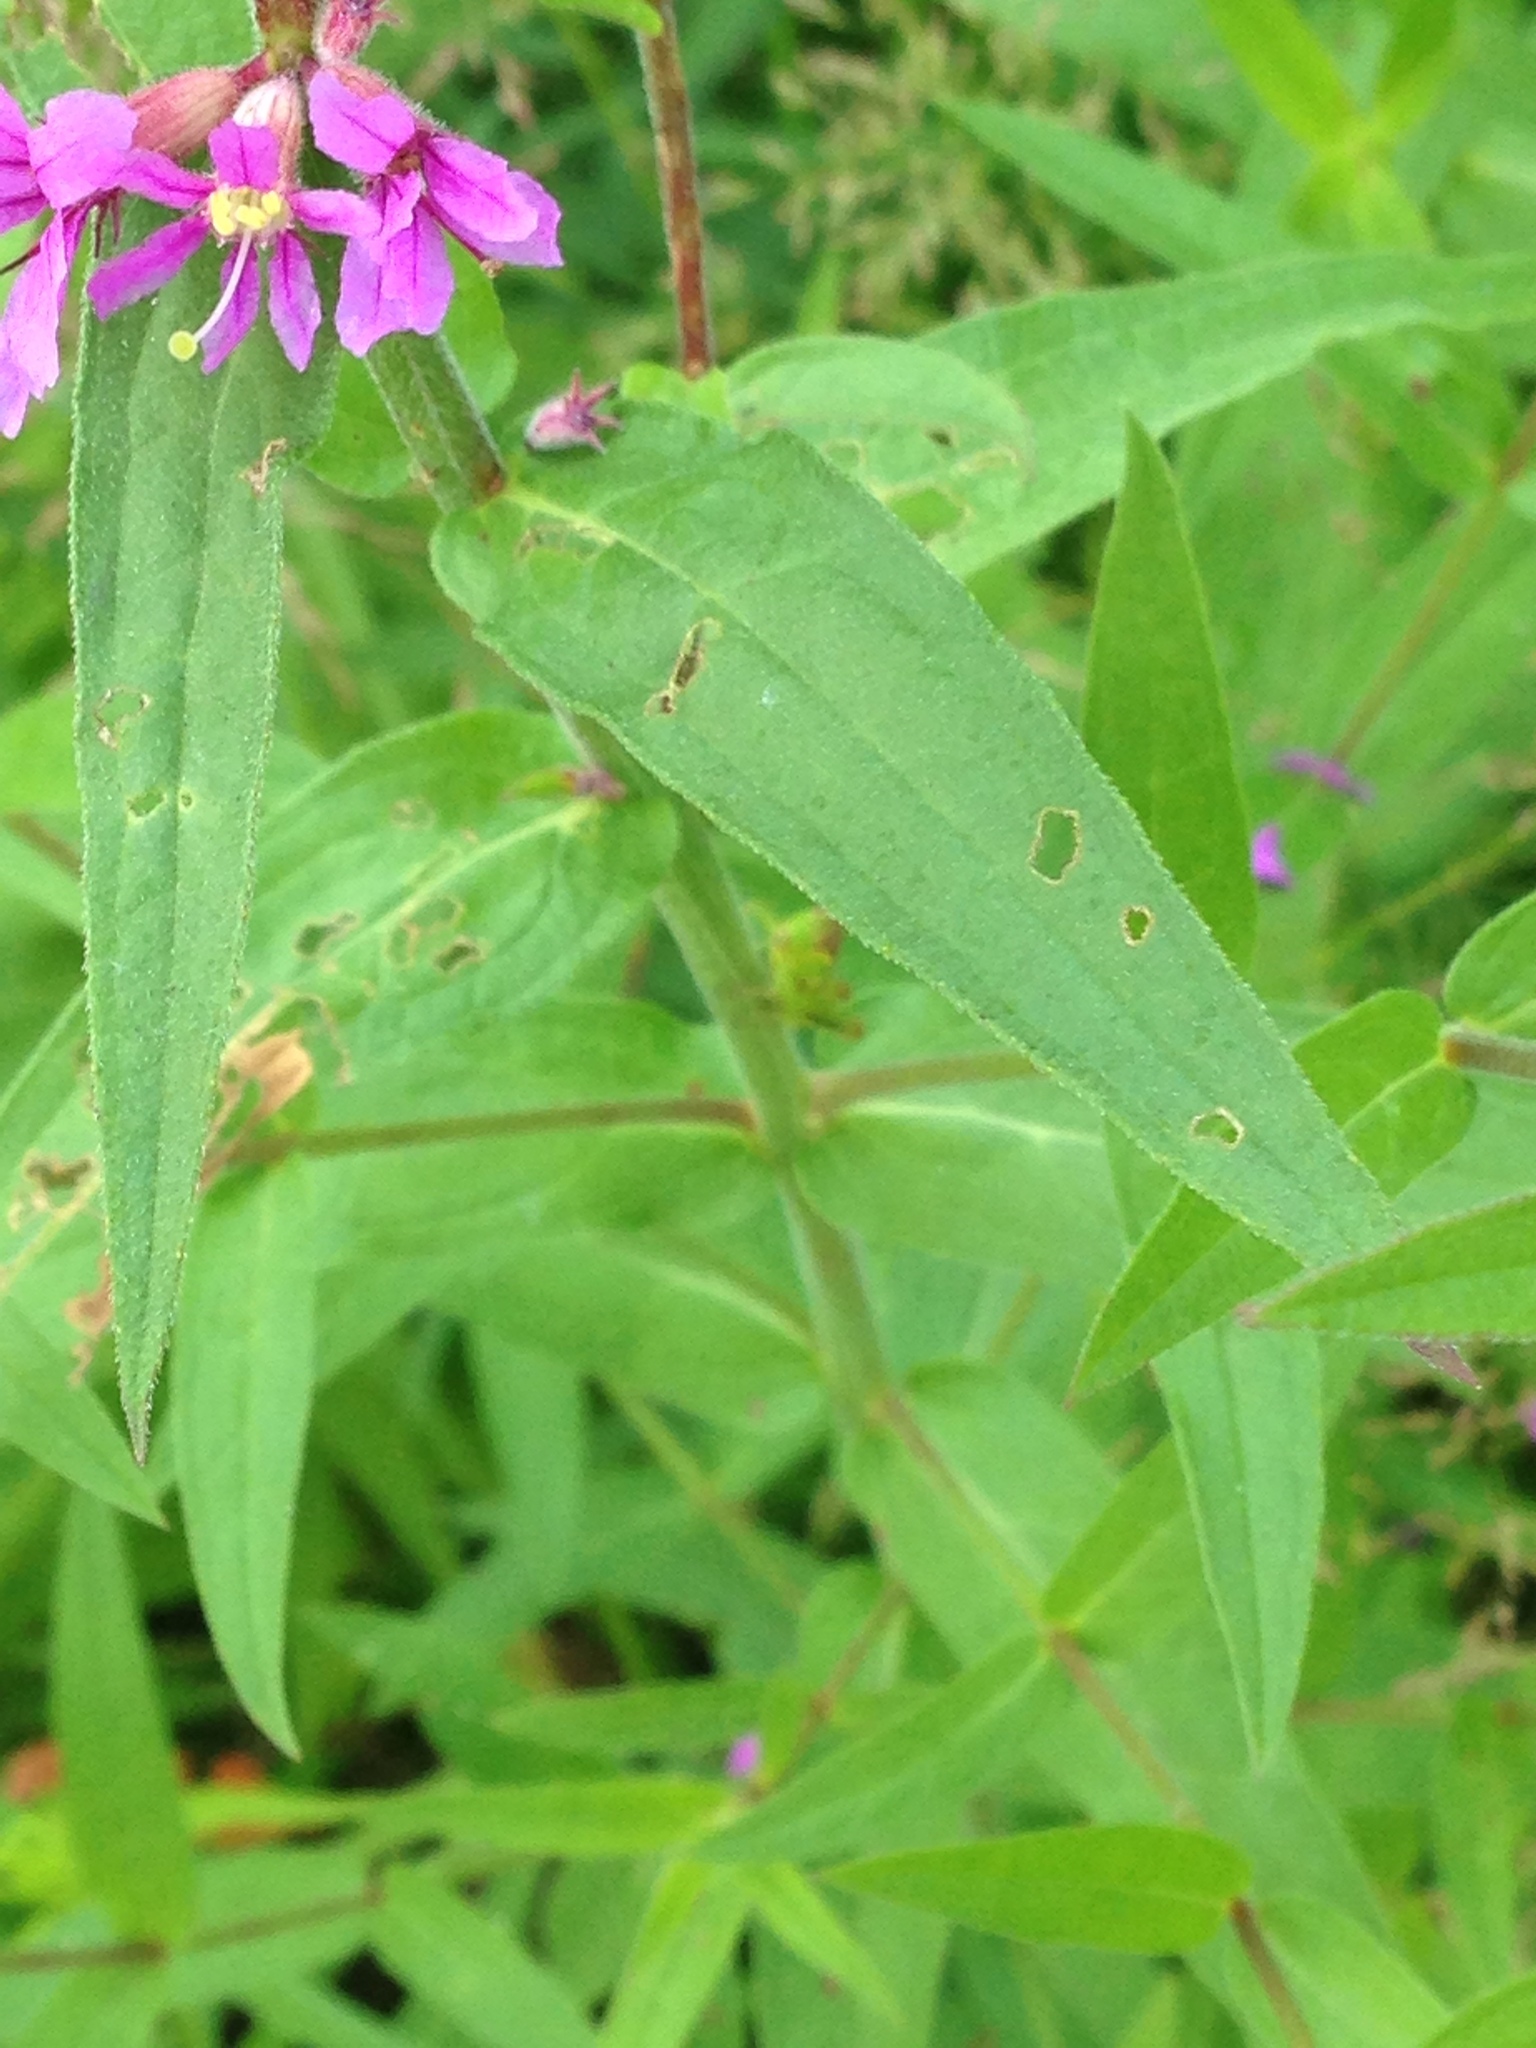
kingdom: Plantae
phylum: Tracheophyta
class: Magnoliopsida
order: Myrtales
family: Lythraceae
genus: Lythrum
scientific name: Lythrum salicaria
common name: Purple loosestrife
